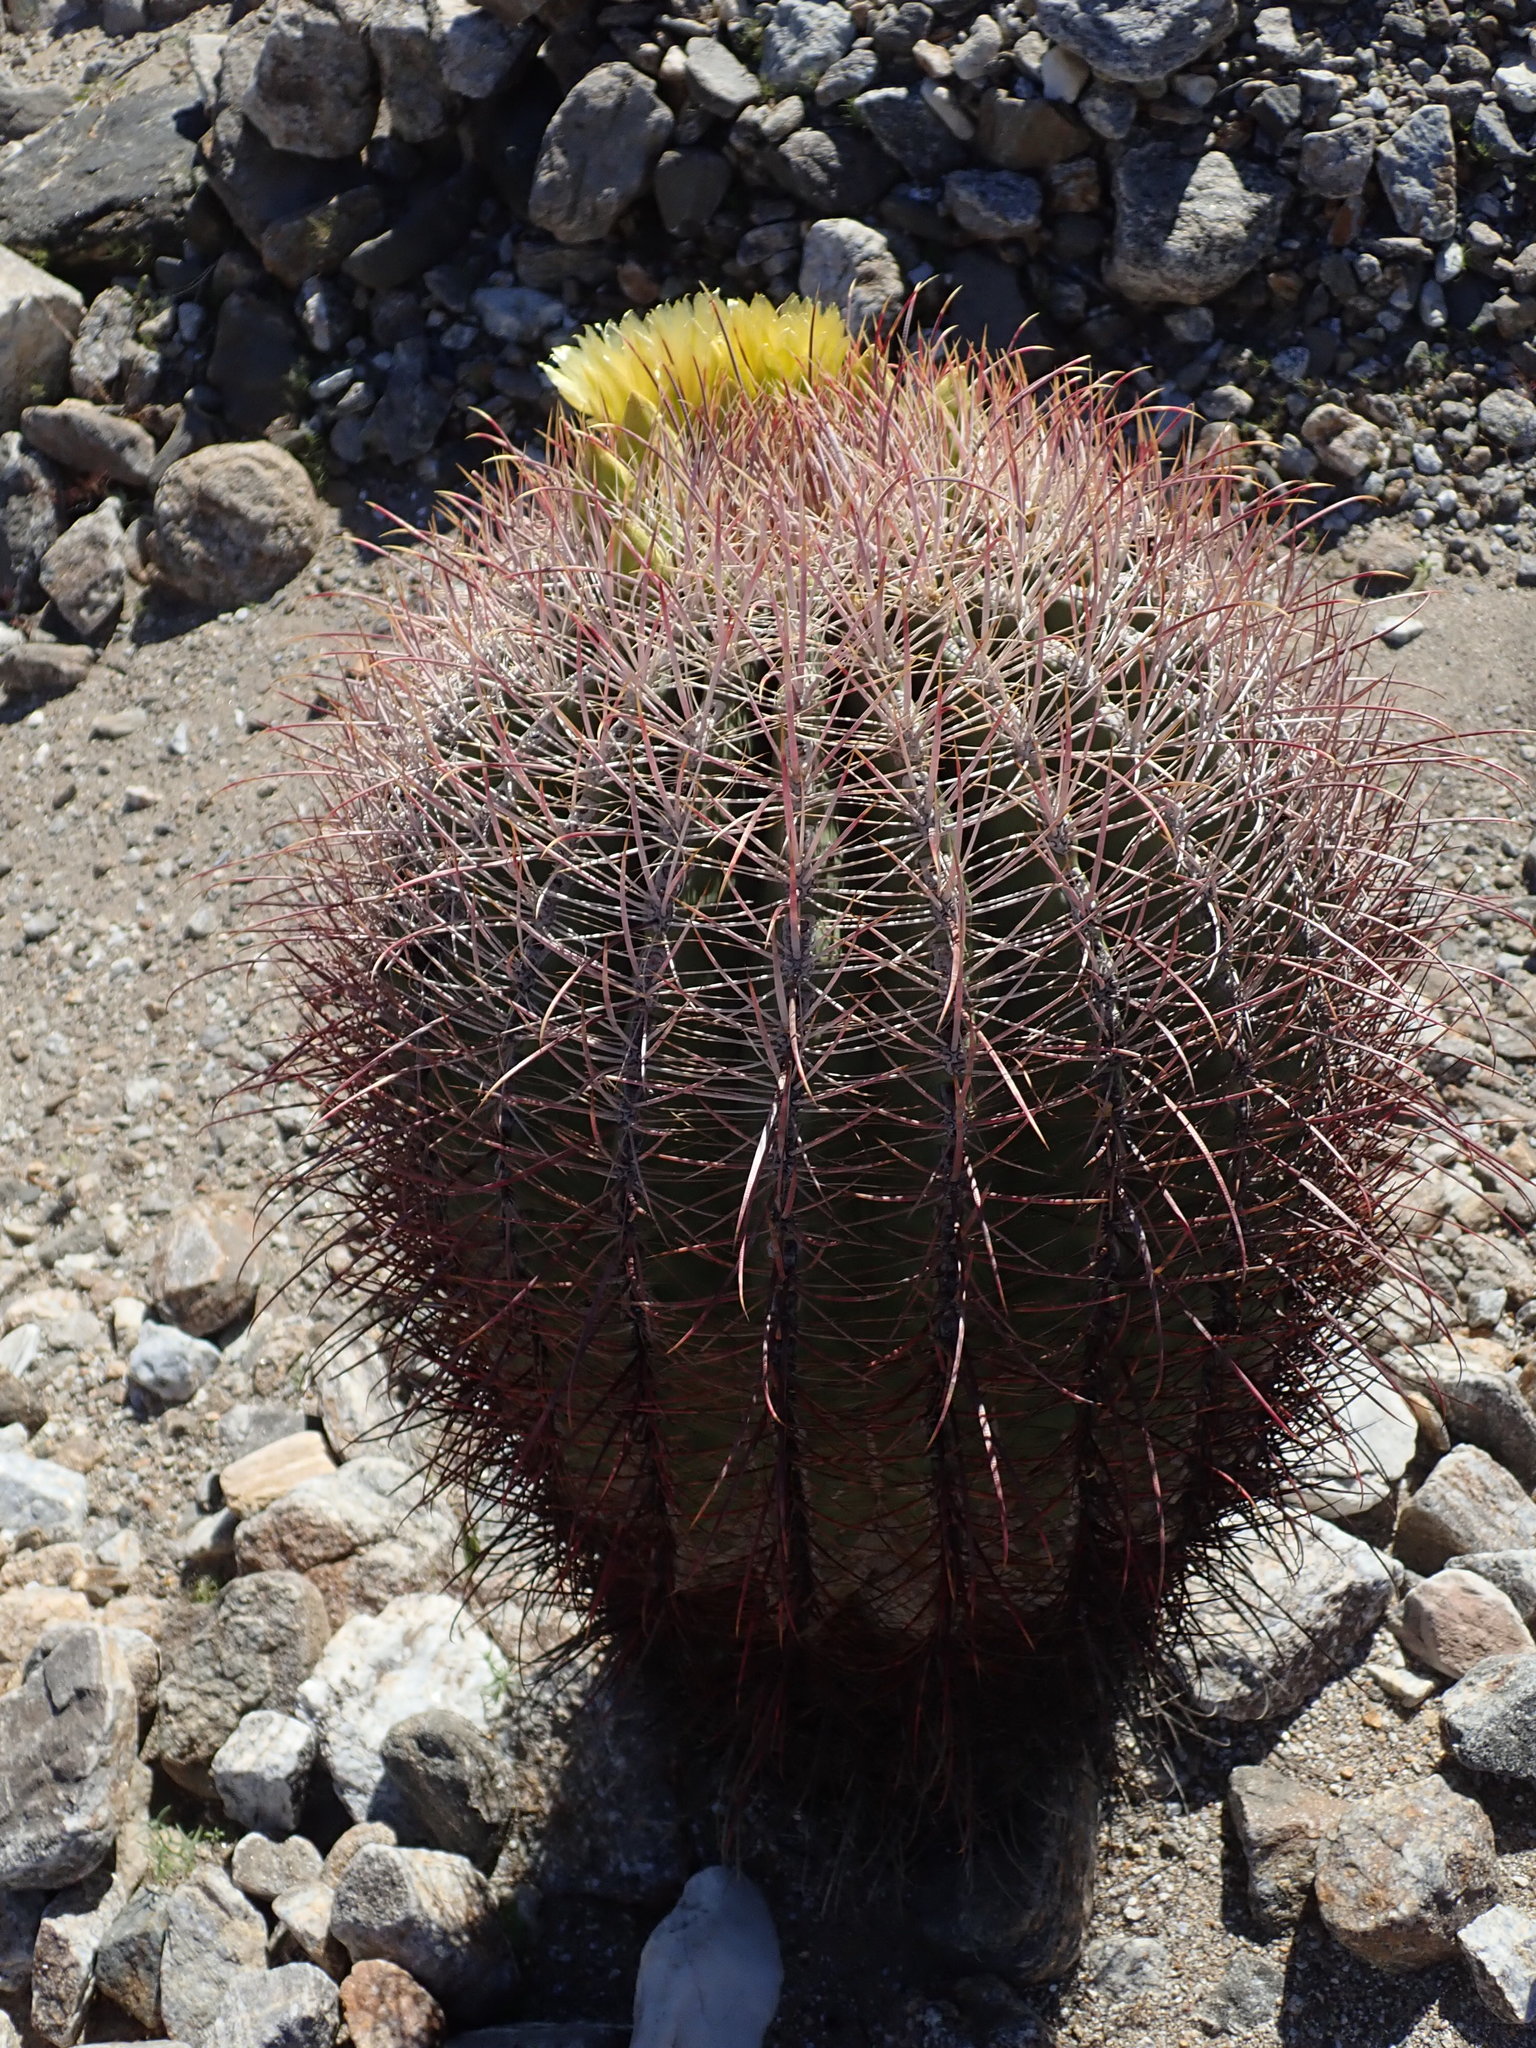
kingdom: Plantae
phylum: Tracheophyta
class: Magnoliopsida
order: Caryophyllales
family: Cactaceae
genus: Ferocactus
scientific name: Ferocactus cylindraceus
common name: California barrel cactus
